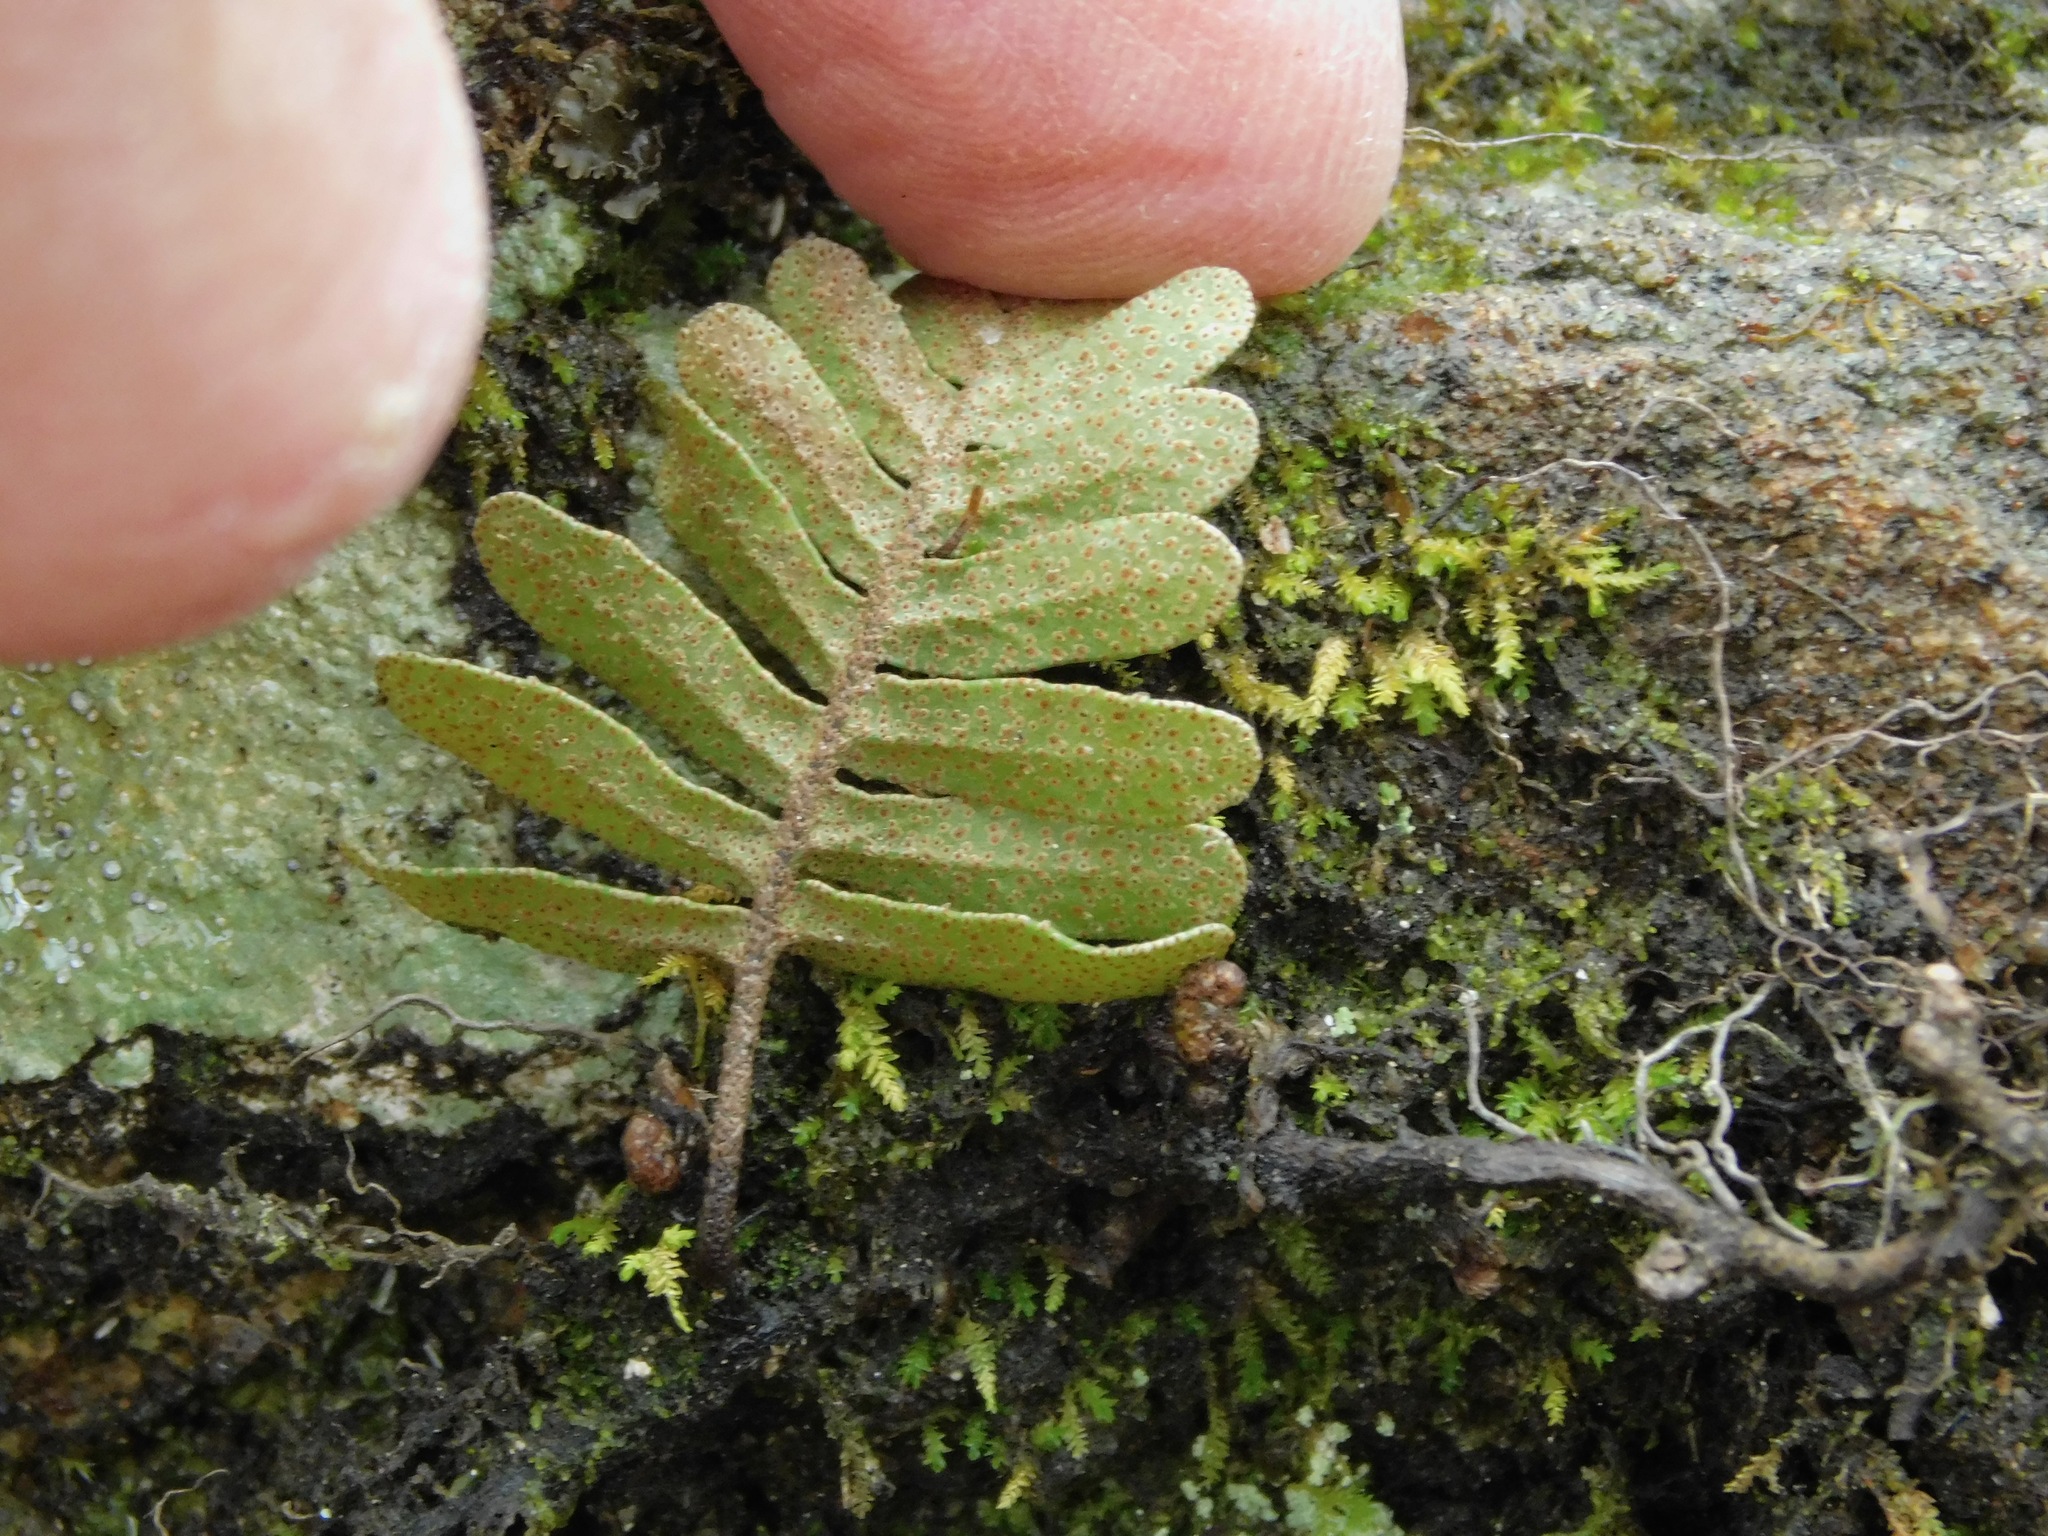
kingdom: Plantae
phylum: Tracheophyta
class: Polypodiopsida
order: Polypodiales
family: Polypodiaceae
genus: Pleopeltis
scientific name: Pleopeltis michauxiana
